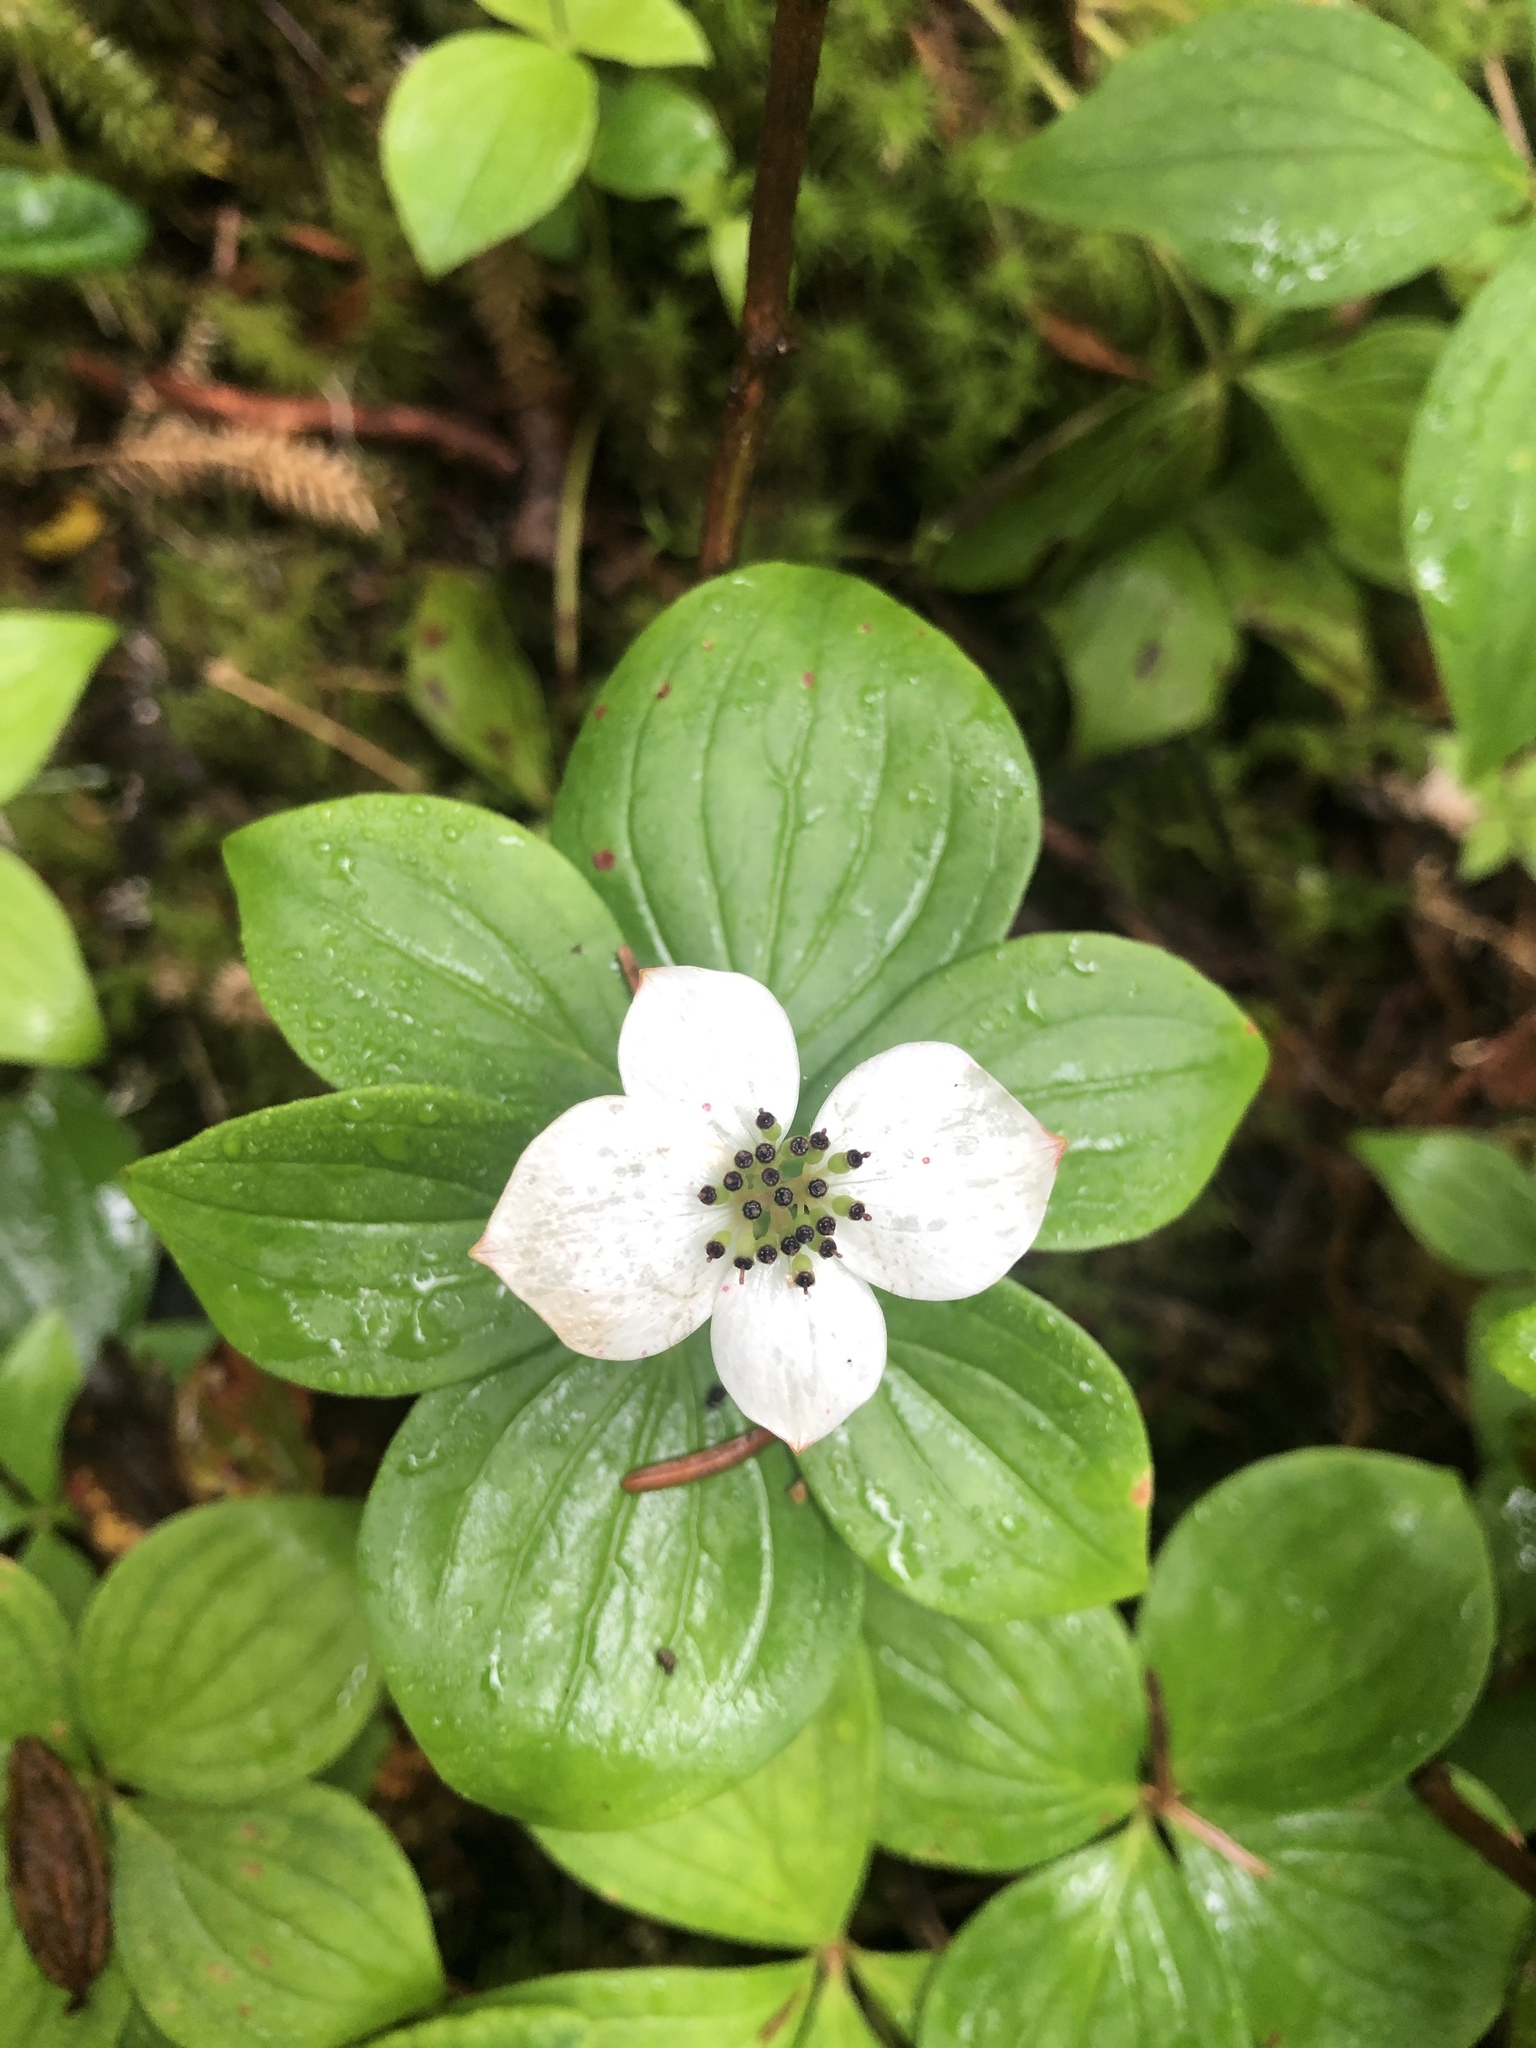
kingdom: Plantae
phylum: Tracheophyta
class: Magnoliopsida
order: Cornales
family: Cornaceae
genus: Cornus
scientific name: Cornus canadensis
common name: Creeping dogwood
